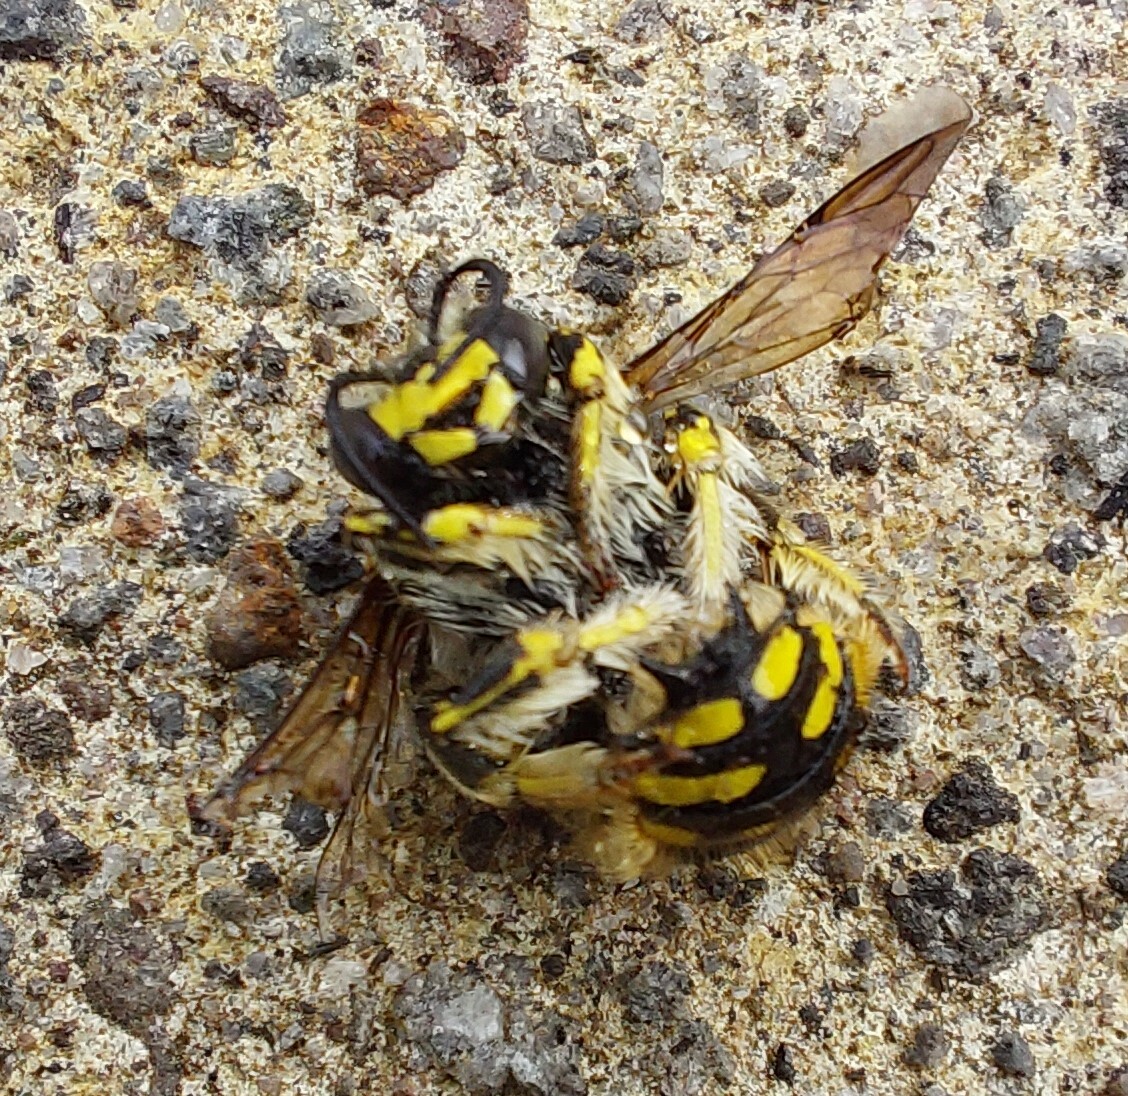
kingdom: Animalia
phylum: Arthropoda
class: Insecta
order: Hymenoptera
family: Megachilidae
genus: Anthidium
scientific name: Anthidium manicatum
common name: Wool carder bee
